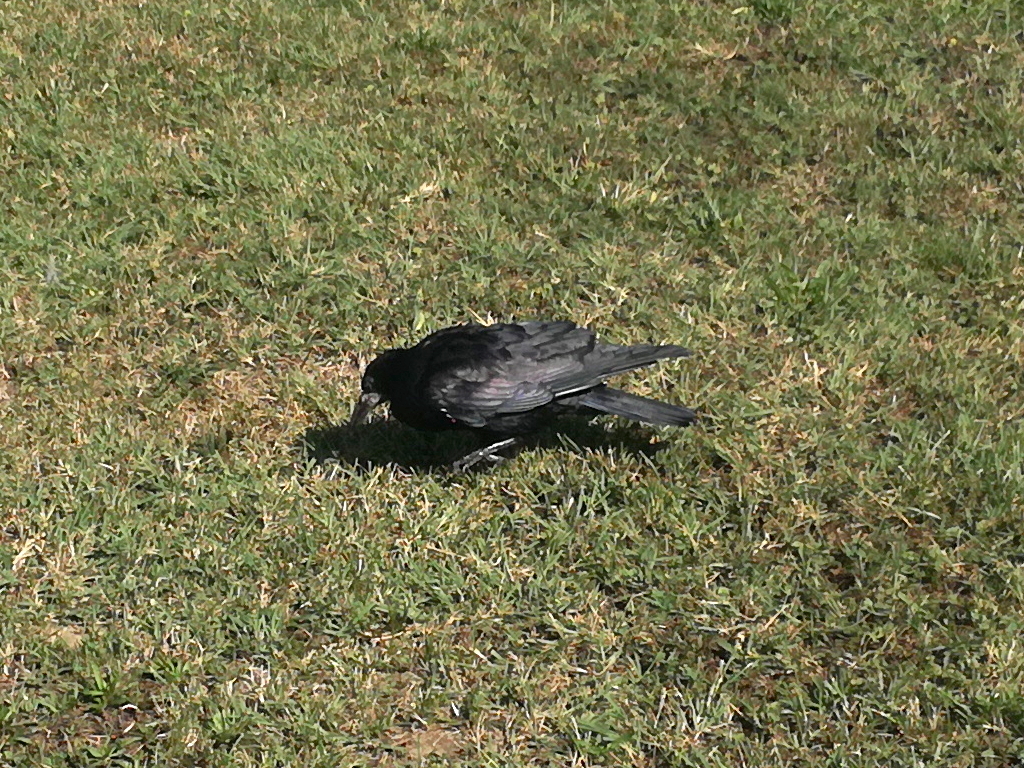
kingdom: Animalia
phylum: Chordata
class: Aves
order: Passeriformes
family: Corvidae
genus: Corvus
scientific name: Corvus frugilegus
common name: Rook
